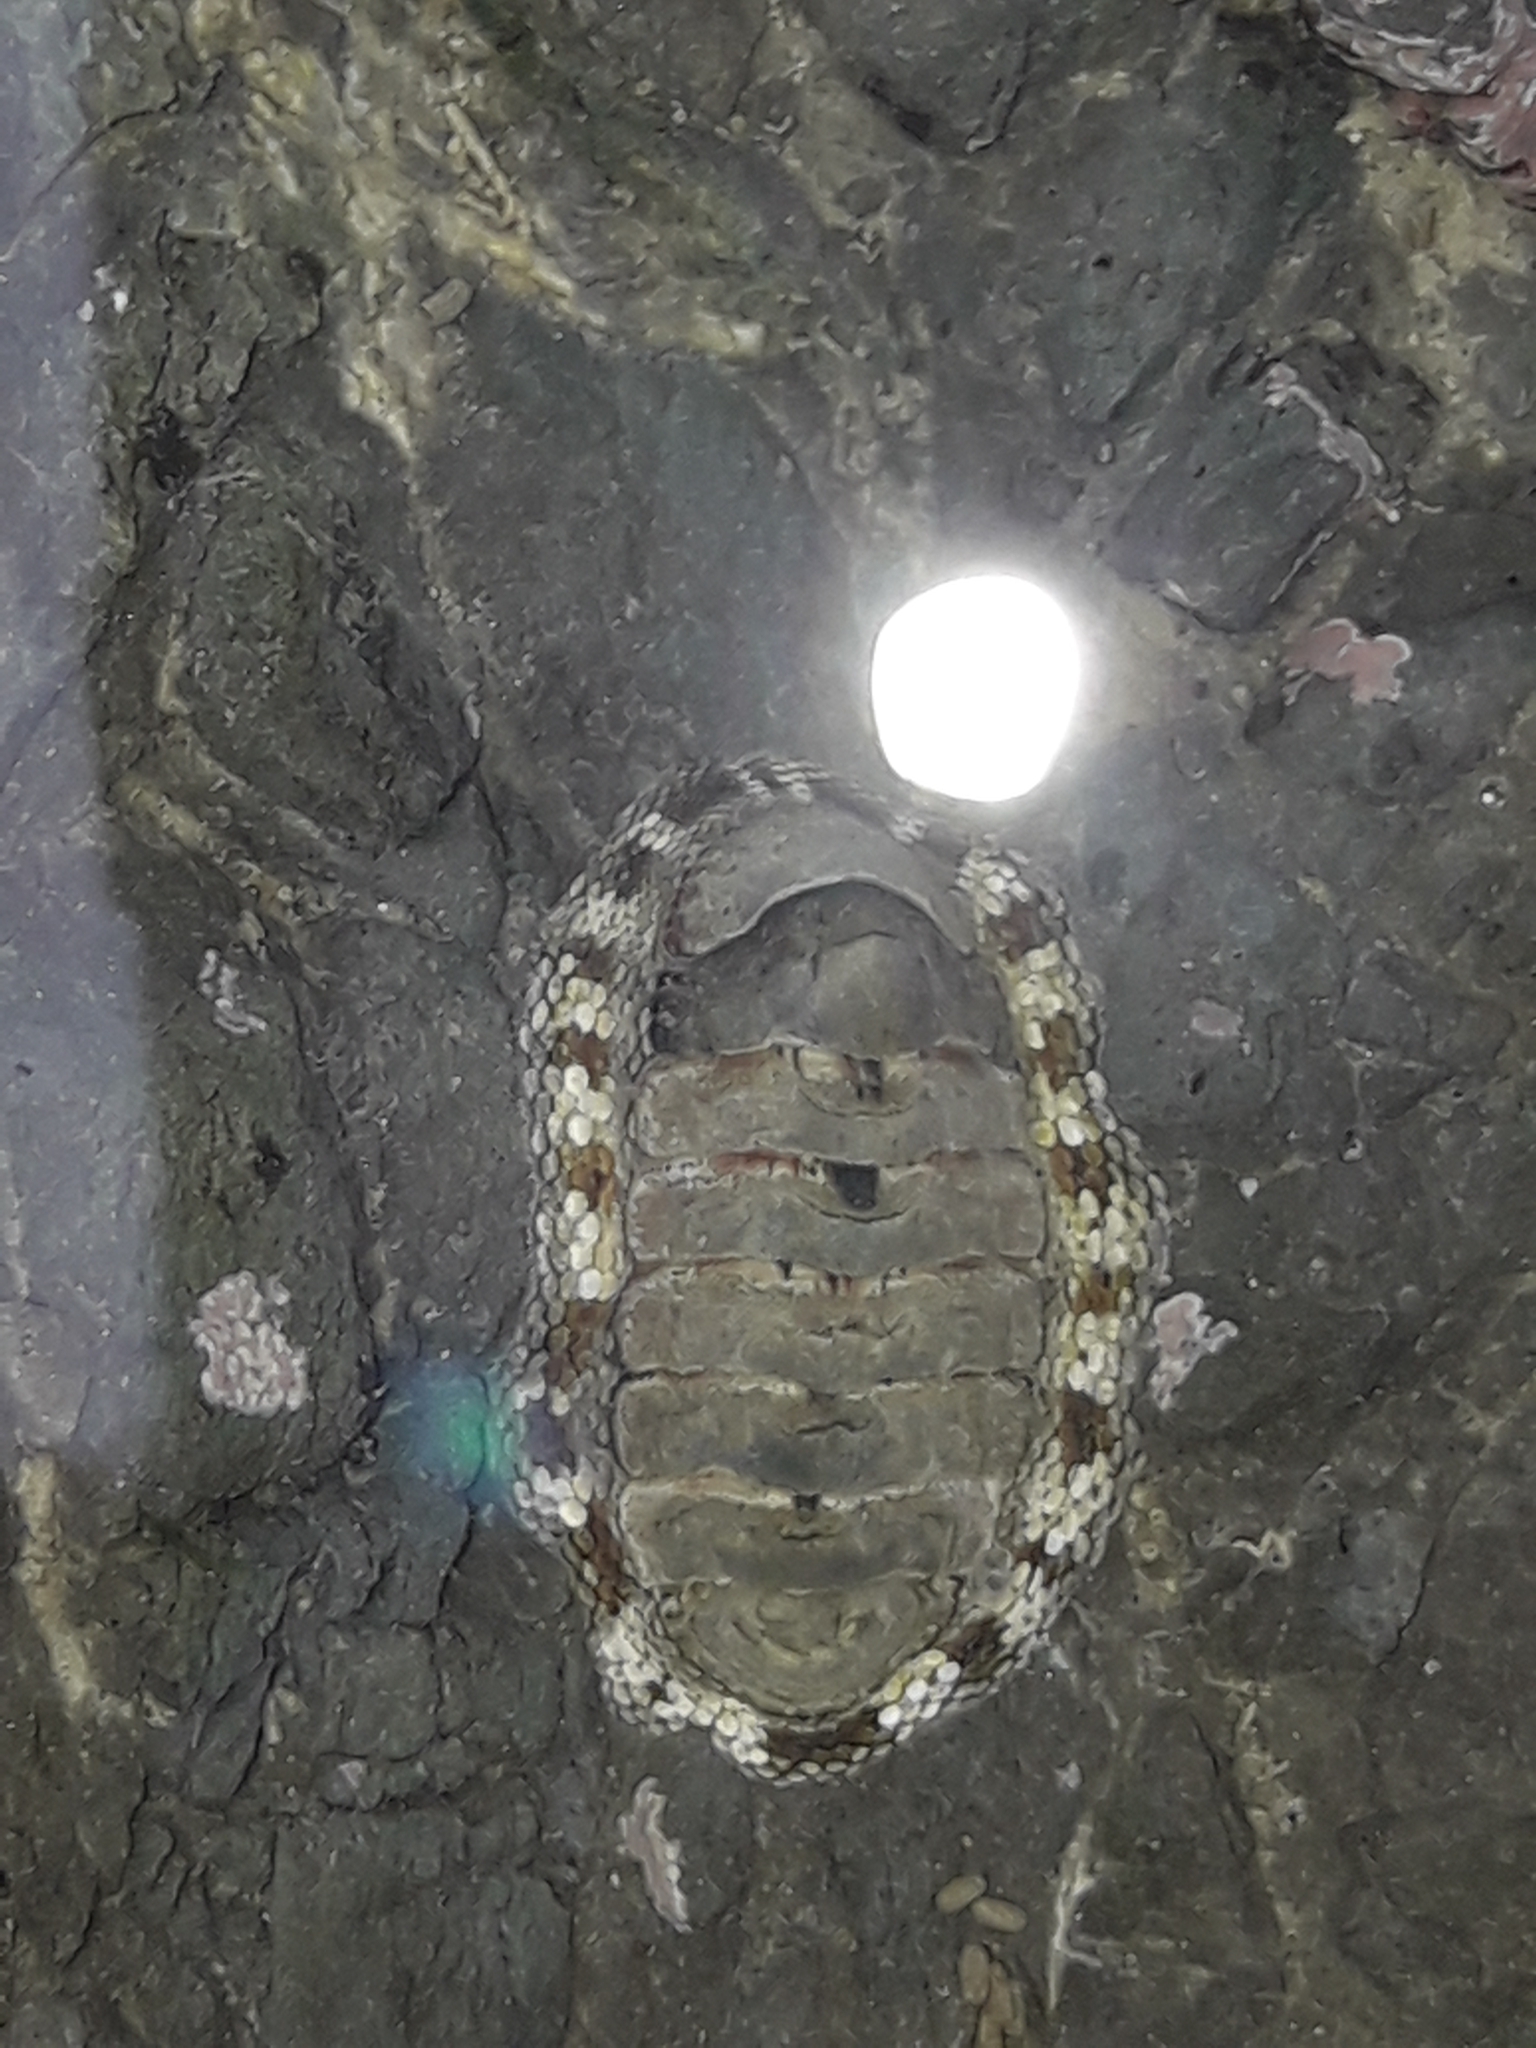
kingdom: Animalia
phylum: Mollusca
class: Polyplacophora
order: Chitonida
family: Chitonidae
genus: Sypharochiton
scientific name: Sypharochiton pelliserpentis
